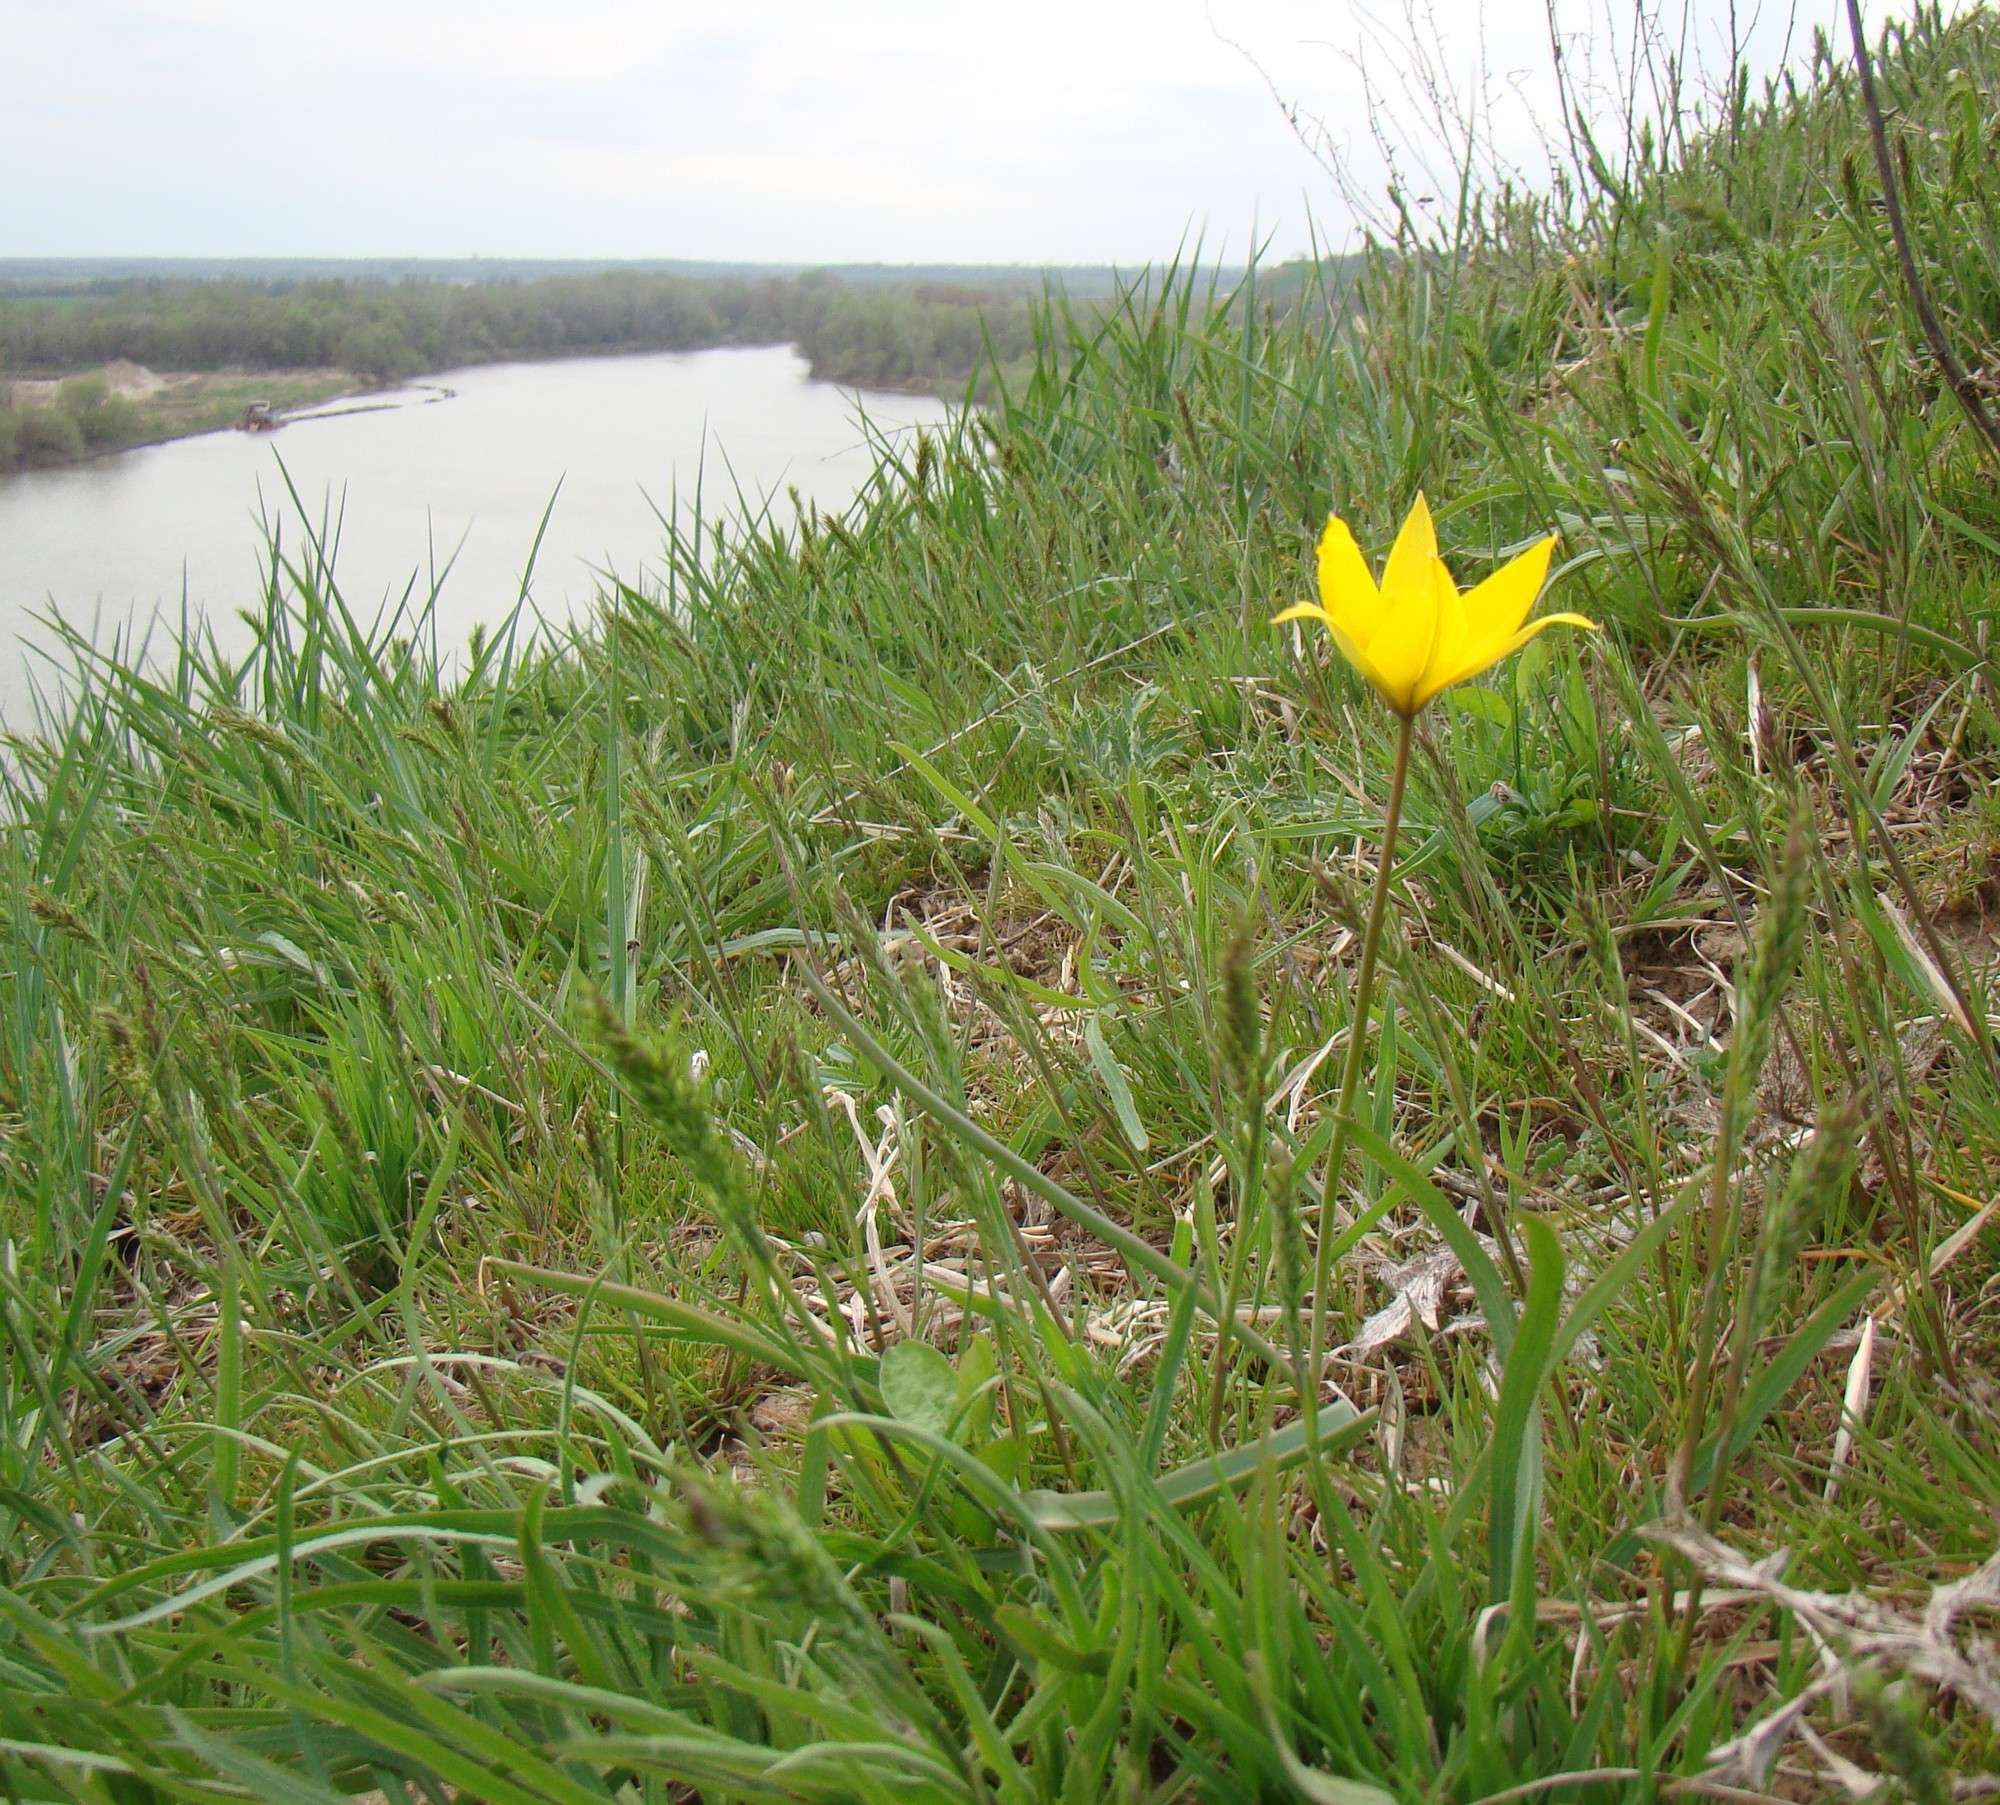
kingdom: Plantae
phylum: Tracheophyta
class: Liliopsida
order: Liliales
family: Liliaceae
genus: Tulipa
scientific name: Tulipa sylvestris
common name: Wild tulip
